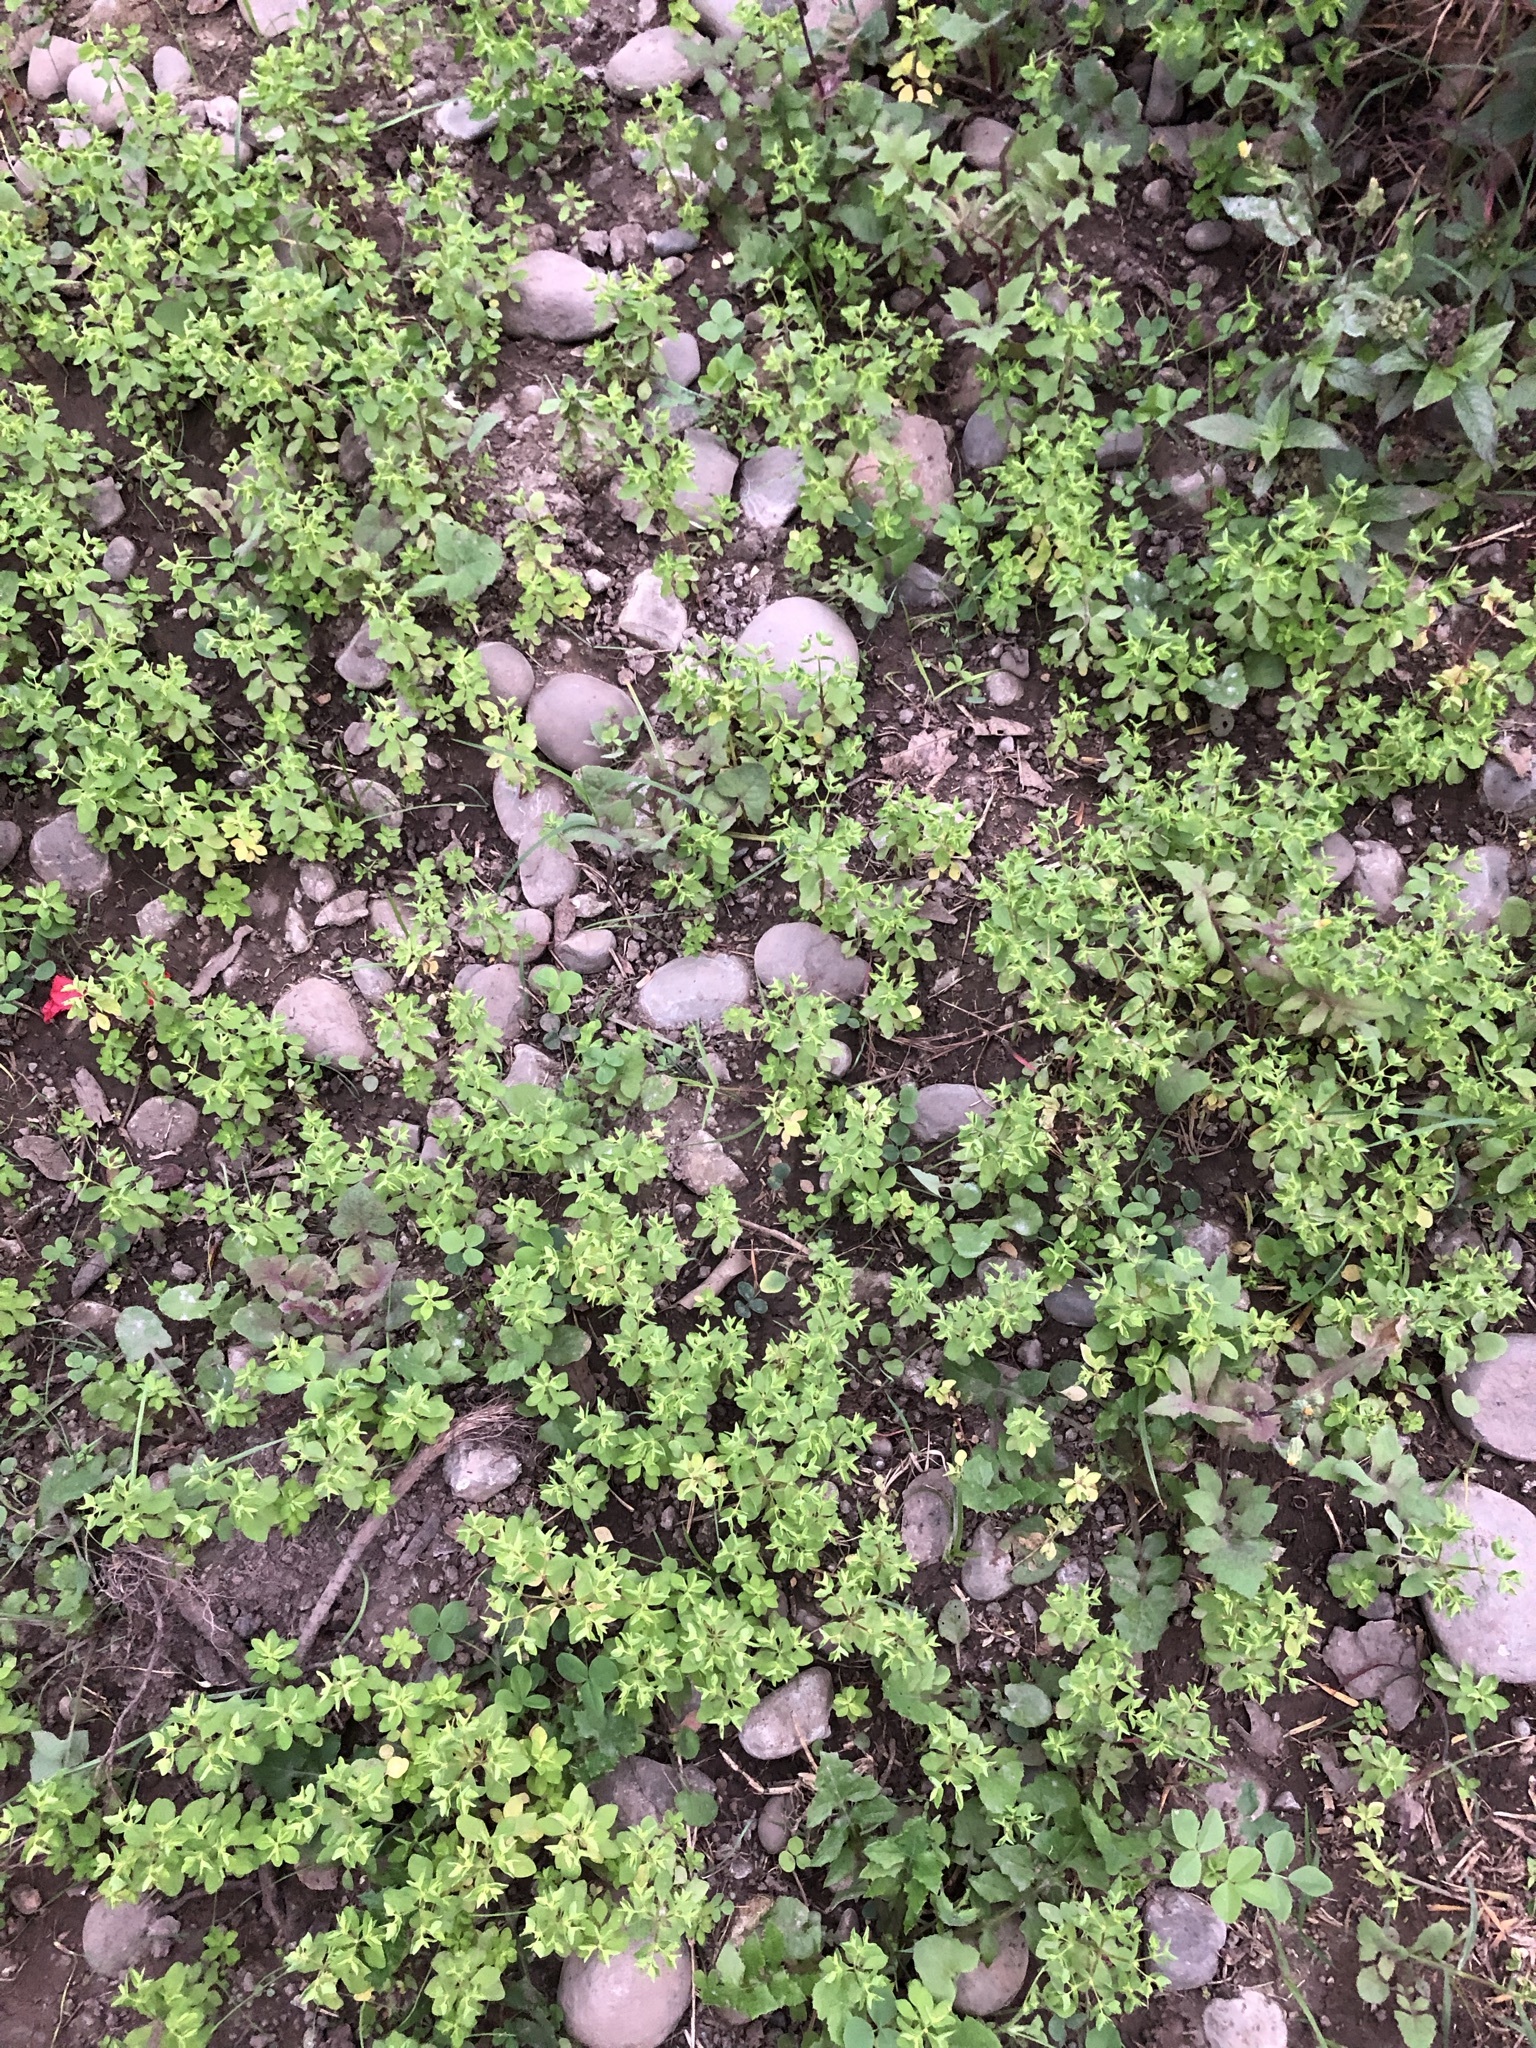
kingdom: Plantae
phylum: Tracheophyta
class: Magnoliopsida
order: Malpighiales
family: Euphorbiaceae
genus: Euphorbia
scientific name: Euphorbia peplus
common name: Petty spurge
